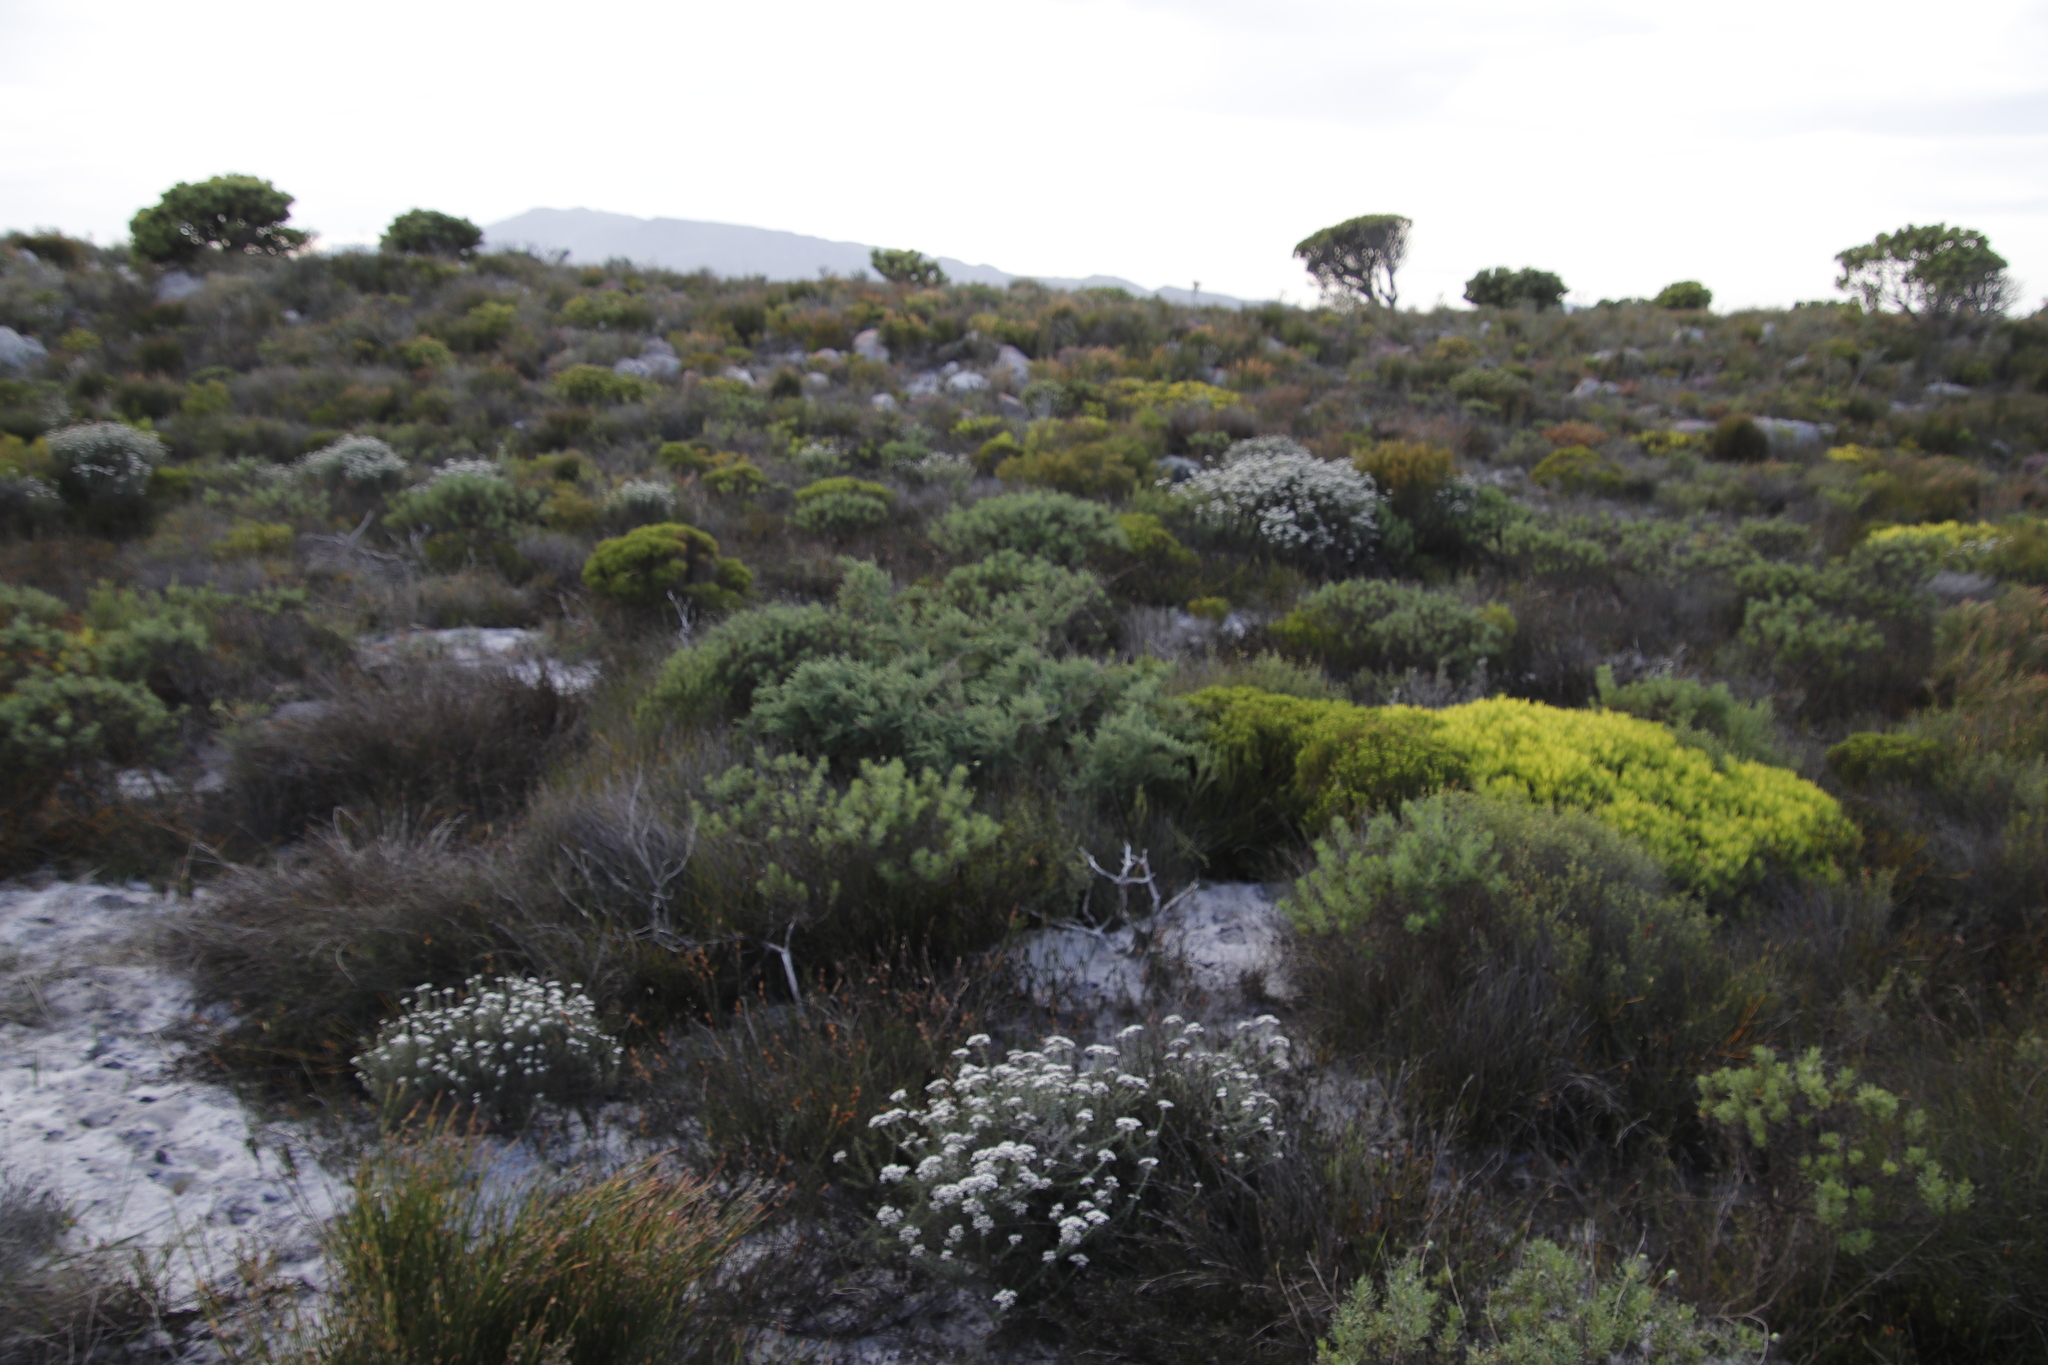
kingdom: Plantae
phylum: Tracheophyta
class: Magnoliopsida
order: Proteales
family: Proteaceae
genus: Leucadendron
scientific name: Leucadendron salignum
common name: Common sunshine conebush
